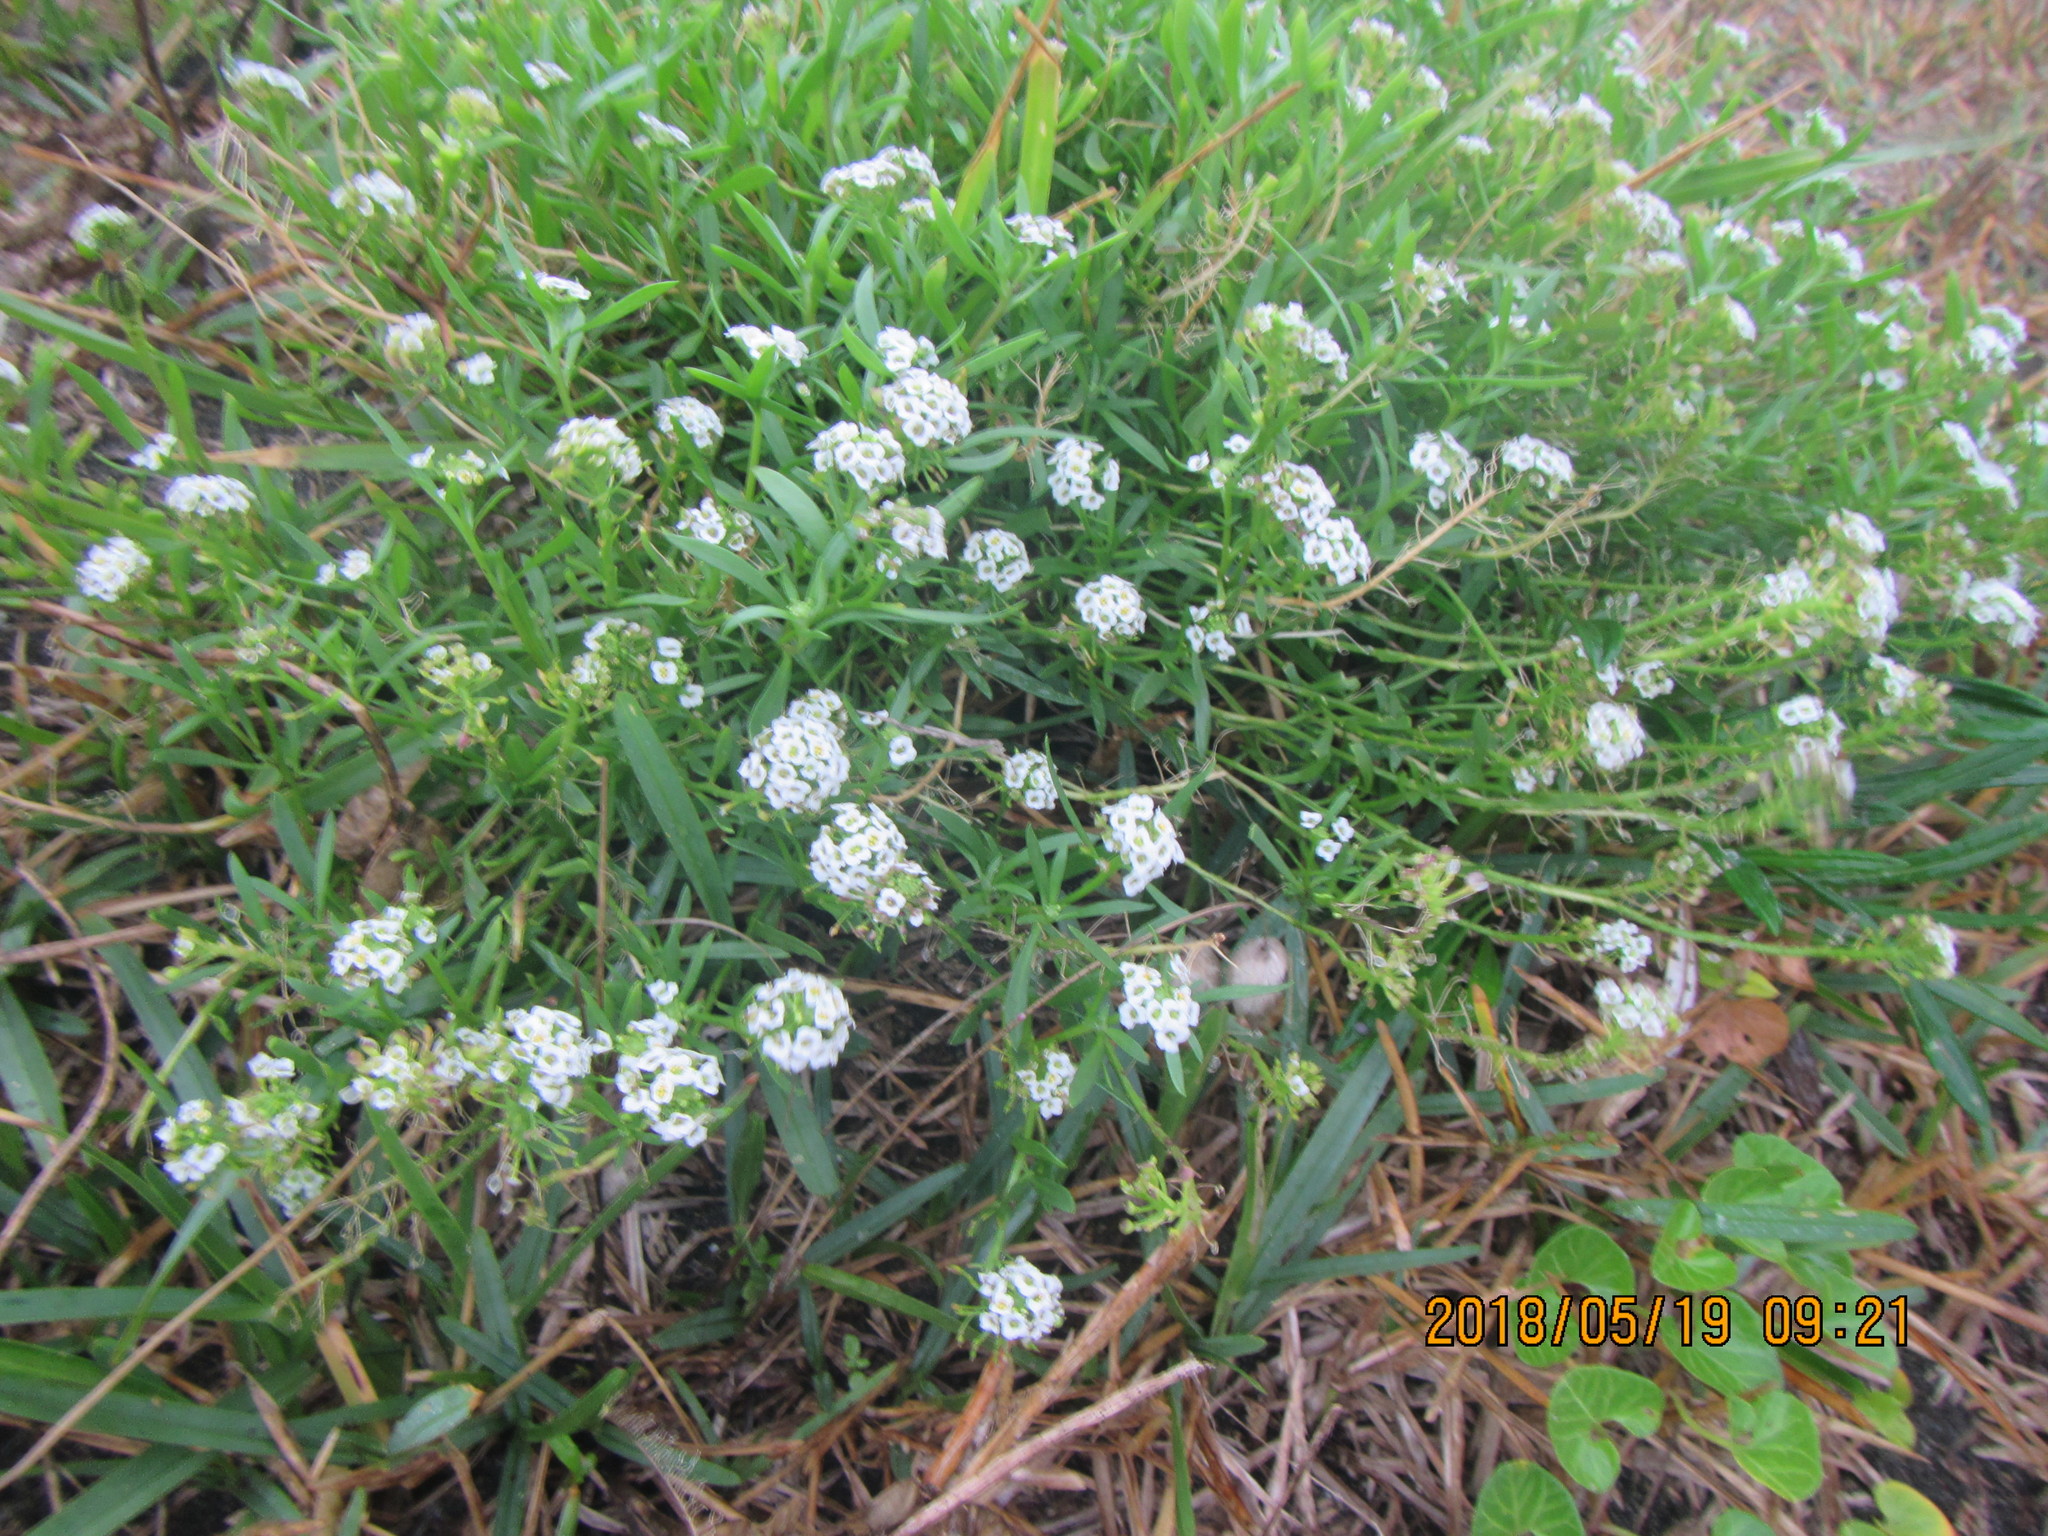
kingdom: Plantae
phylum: Tracheophyta
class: Magnoliopsida
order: Brassicales
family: Brassicaceae
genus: Lobularia
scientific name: Lobularia maritima
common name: Sweet alison
